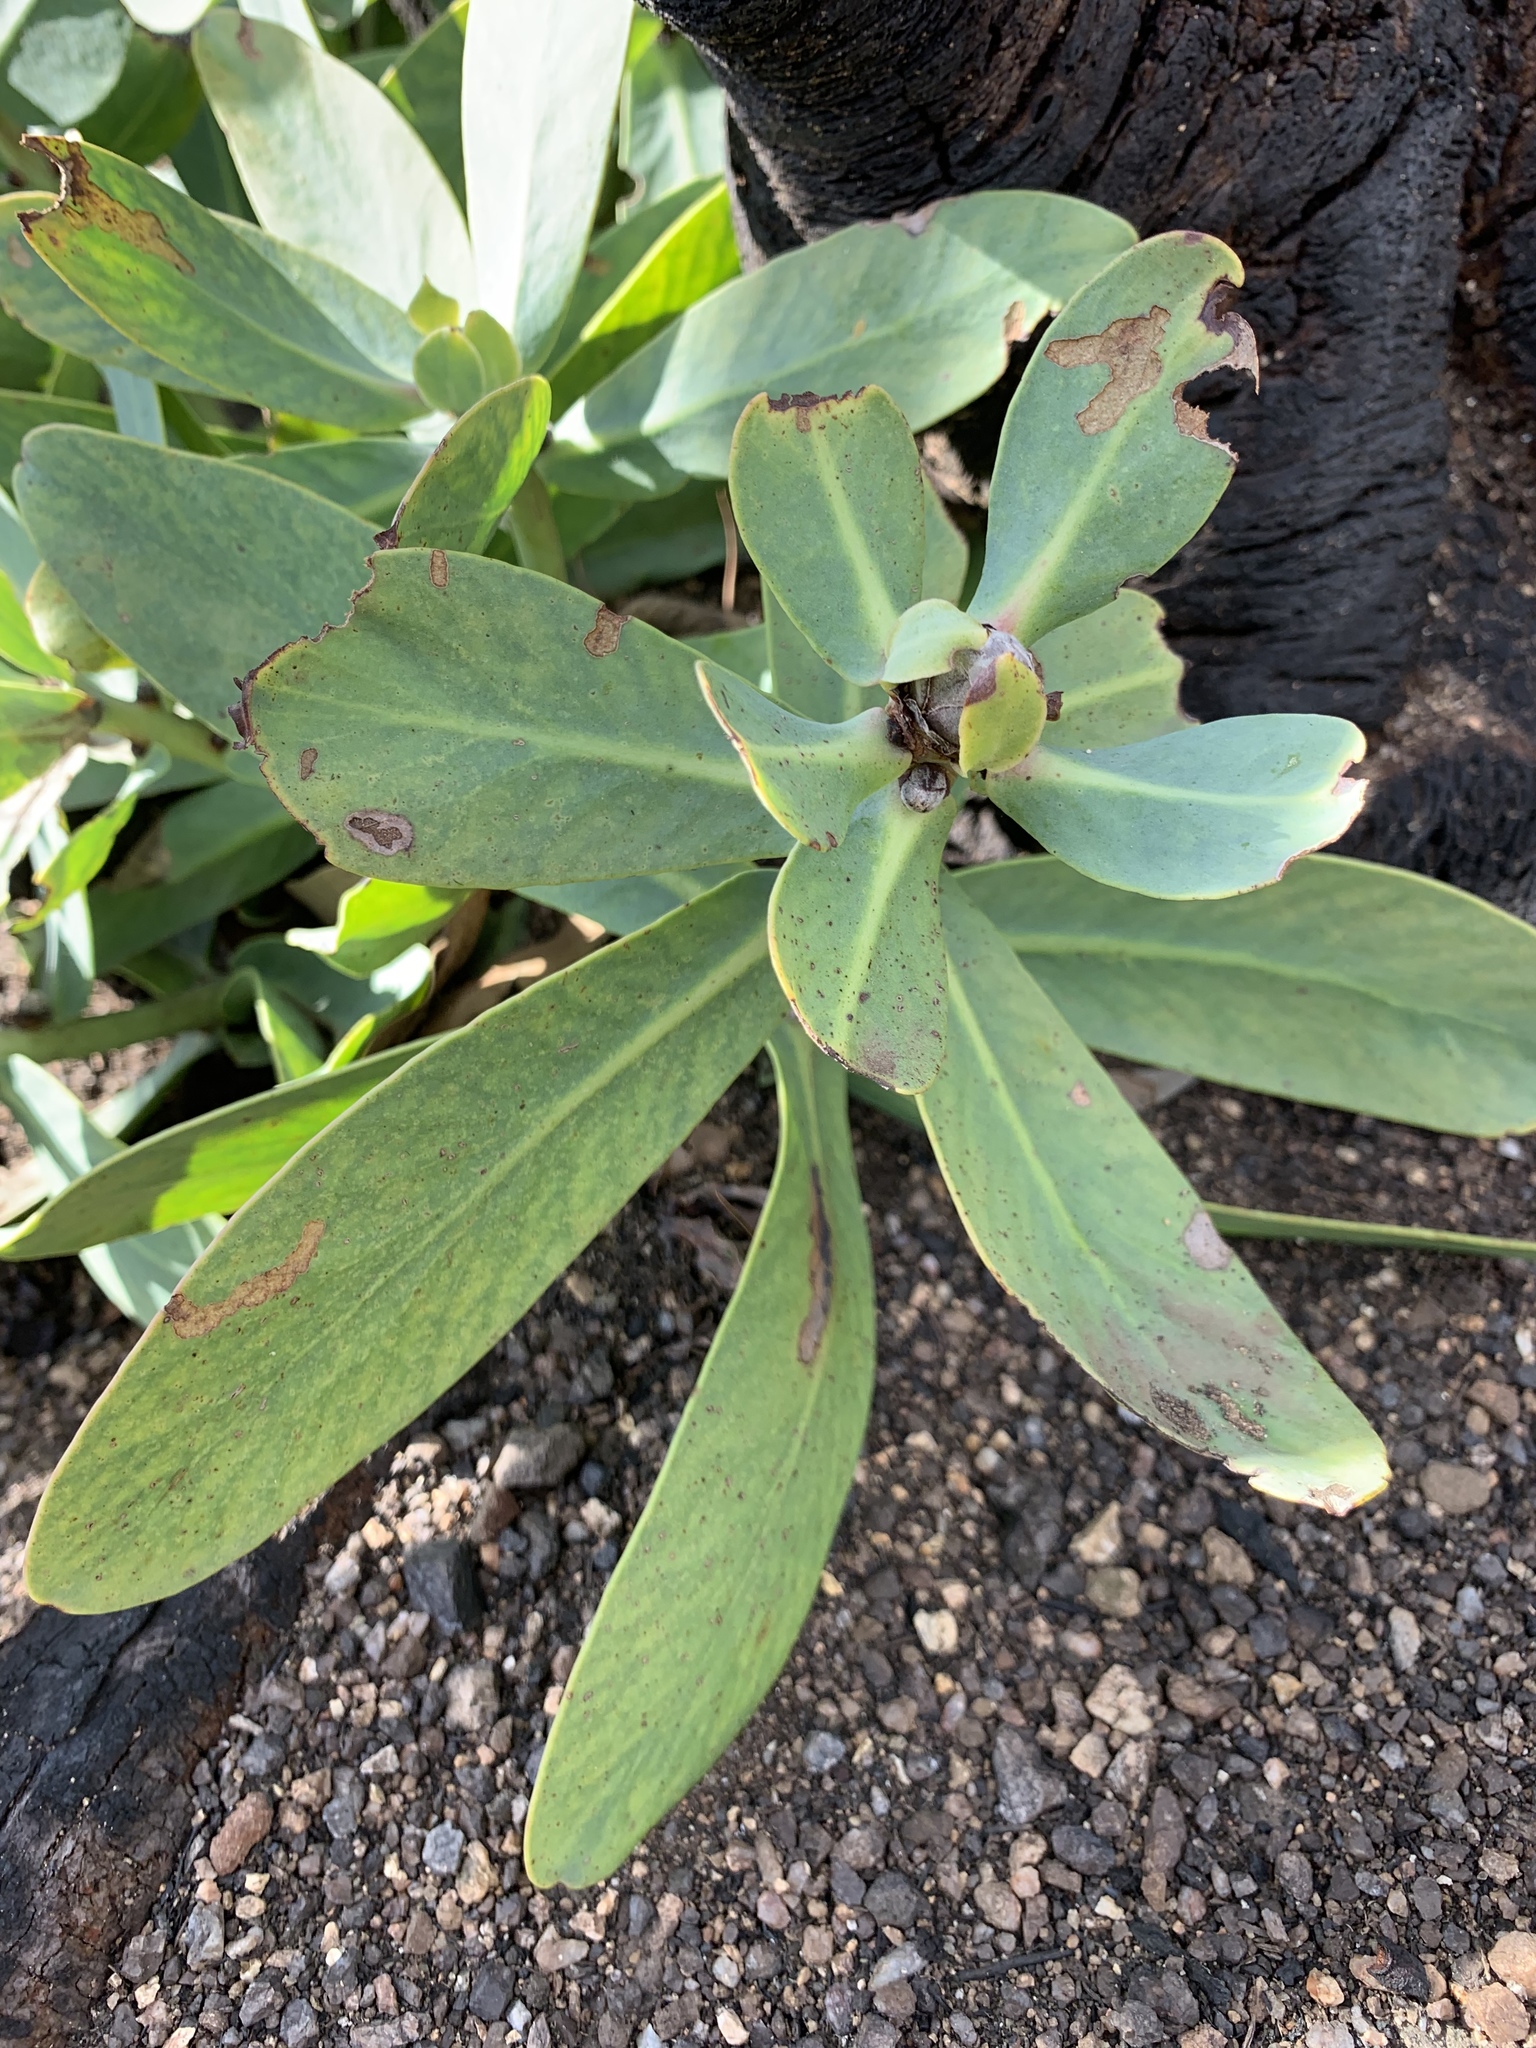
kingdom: Plantae
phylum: Tracheophyta
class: Magnoliopsida
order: Proteales
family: Proteaceae
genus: Protea
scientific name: Protea nitida
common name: Tree protea
